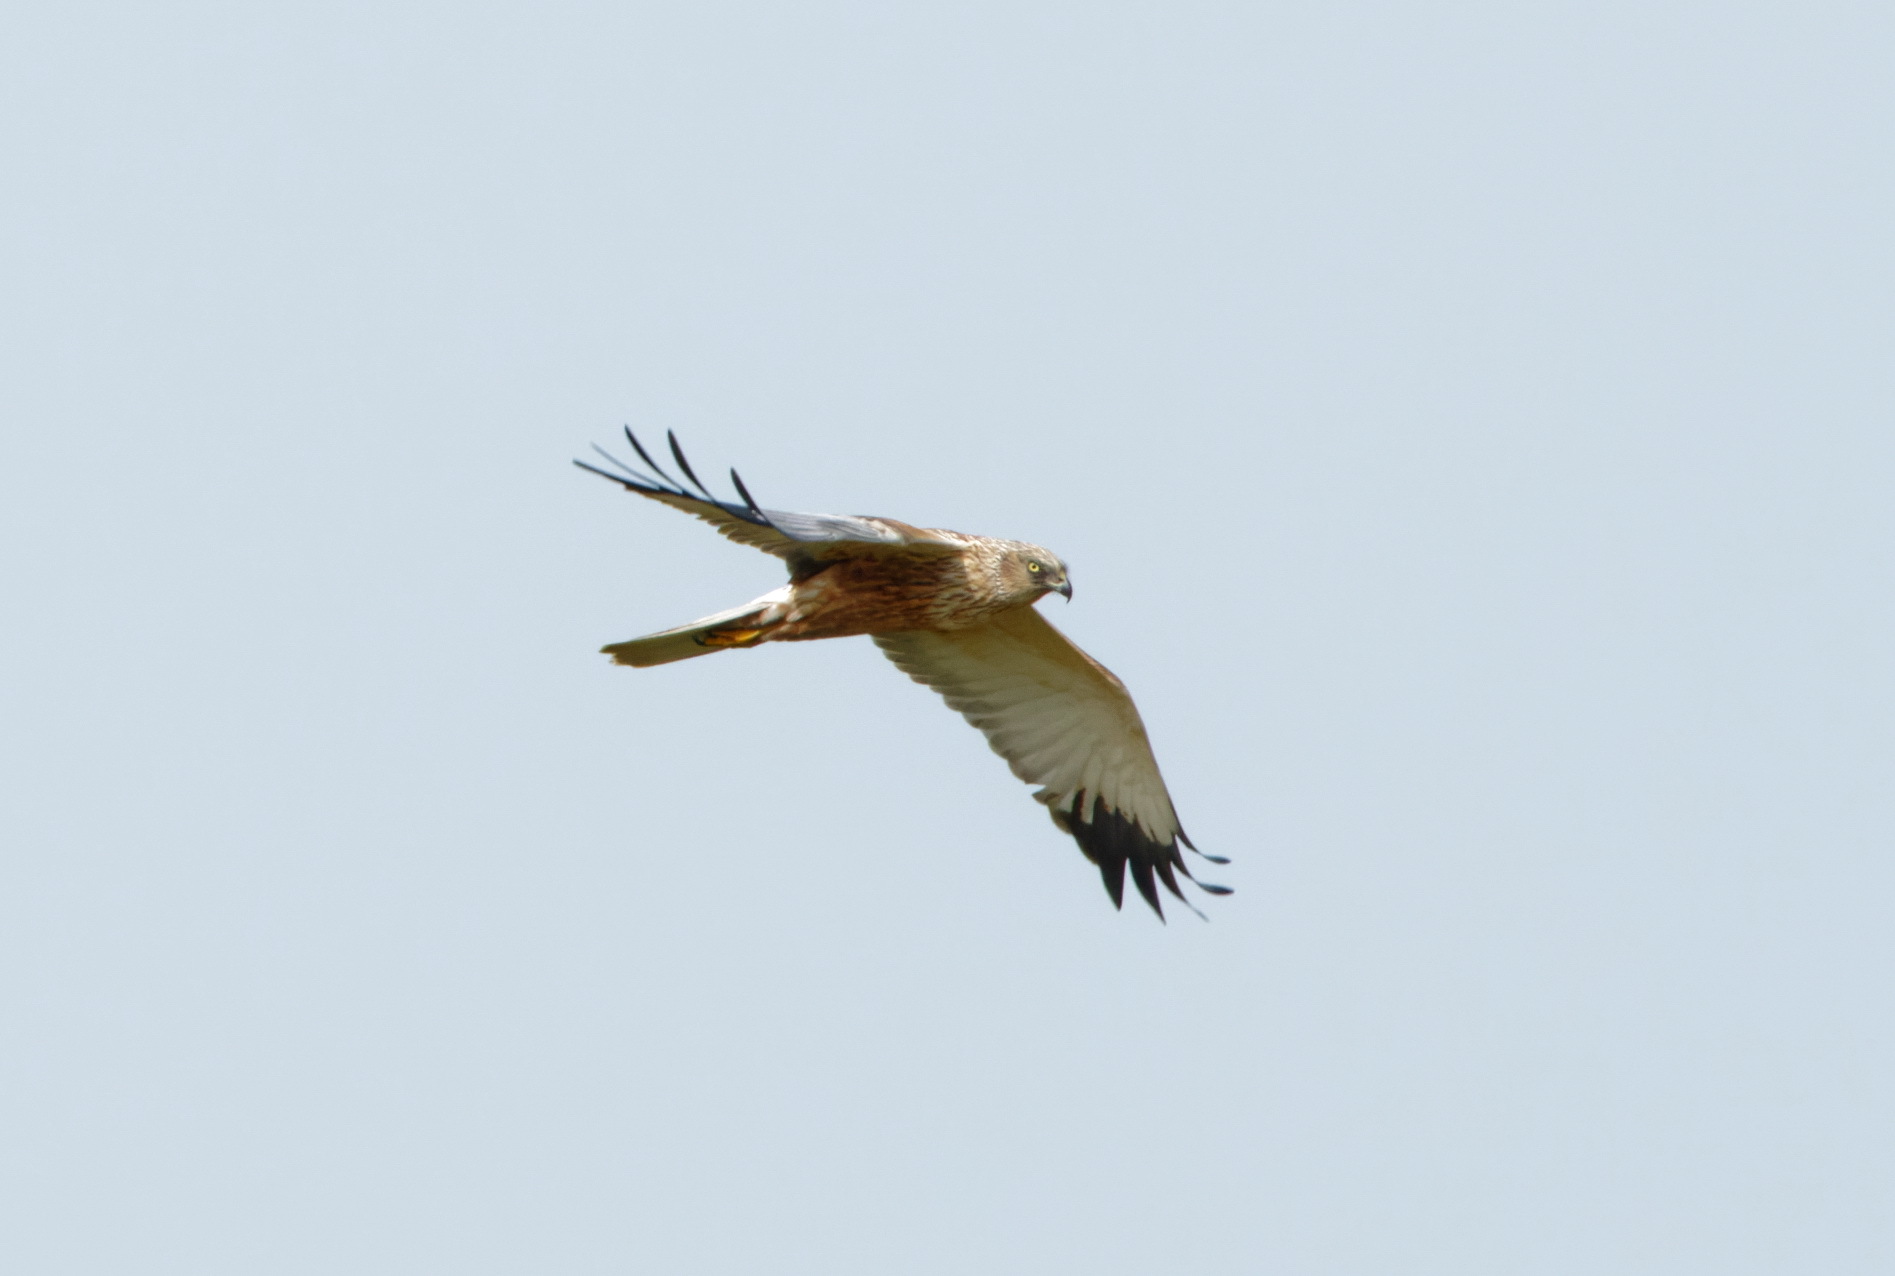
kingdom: Animalia
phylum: Chordata
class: Aves
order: Accipitriformes
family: Accipitridae
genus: Circus
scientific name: Circus aeruginosus
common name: Western marsh harrier
